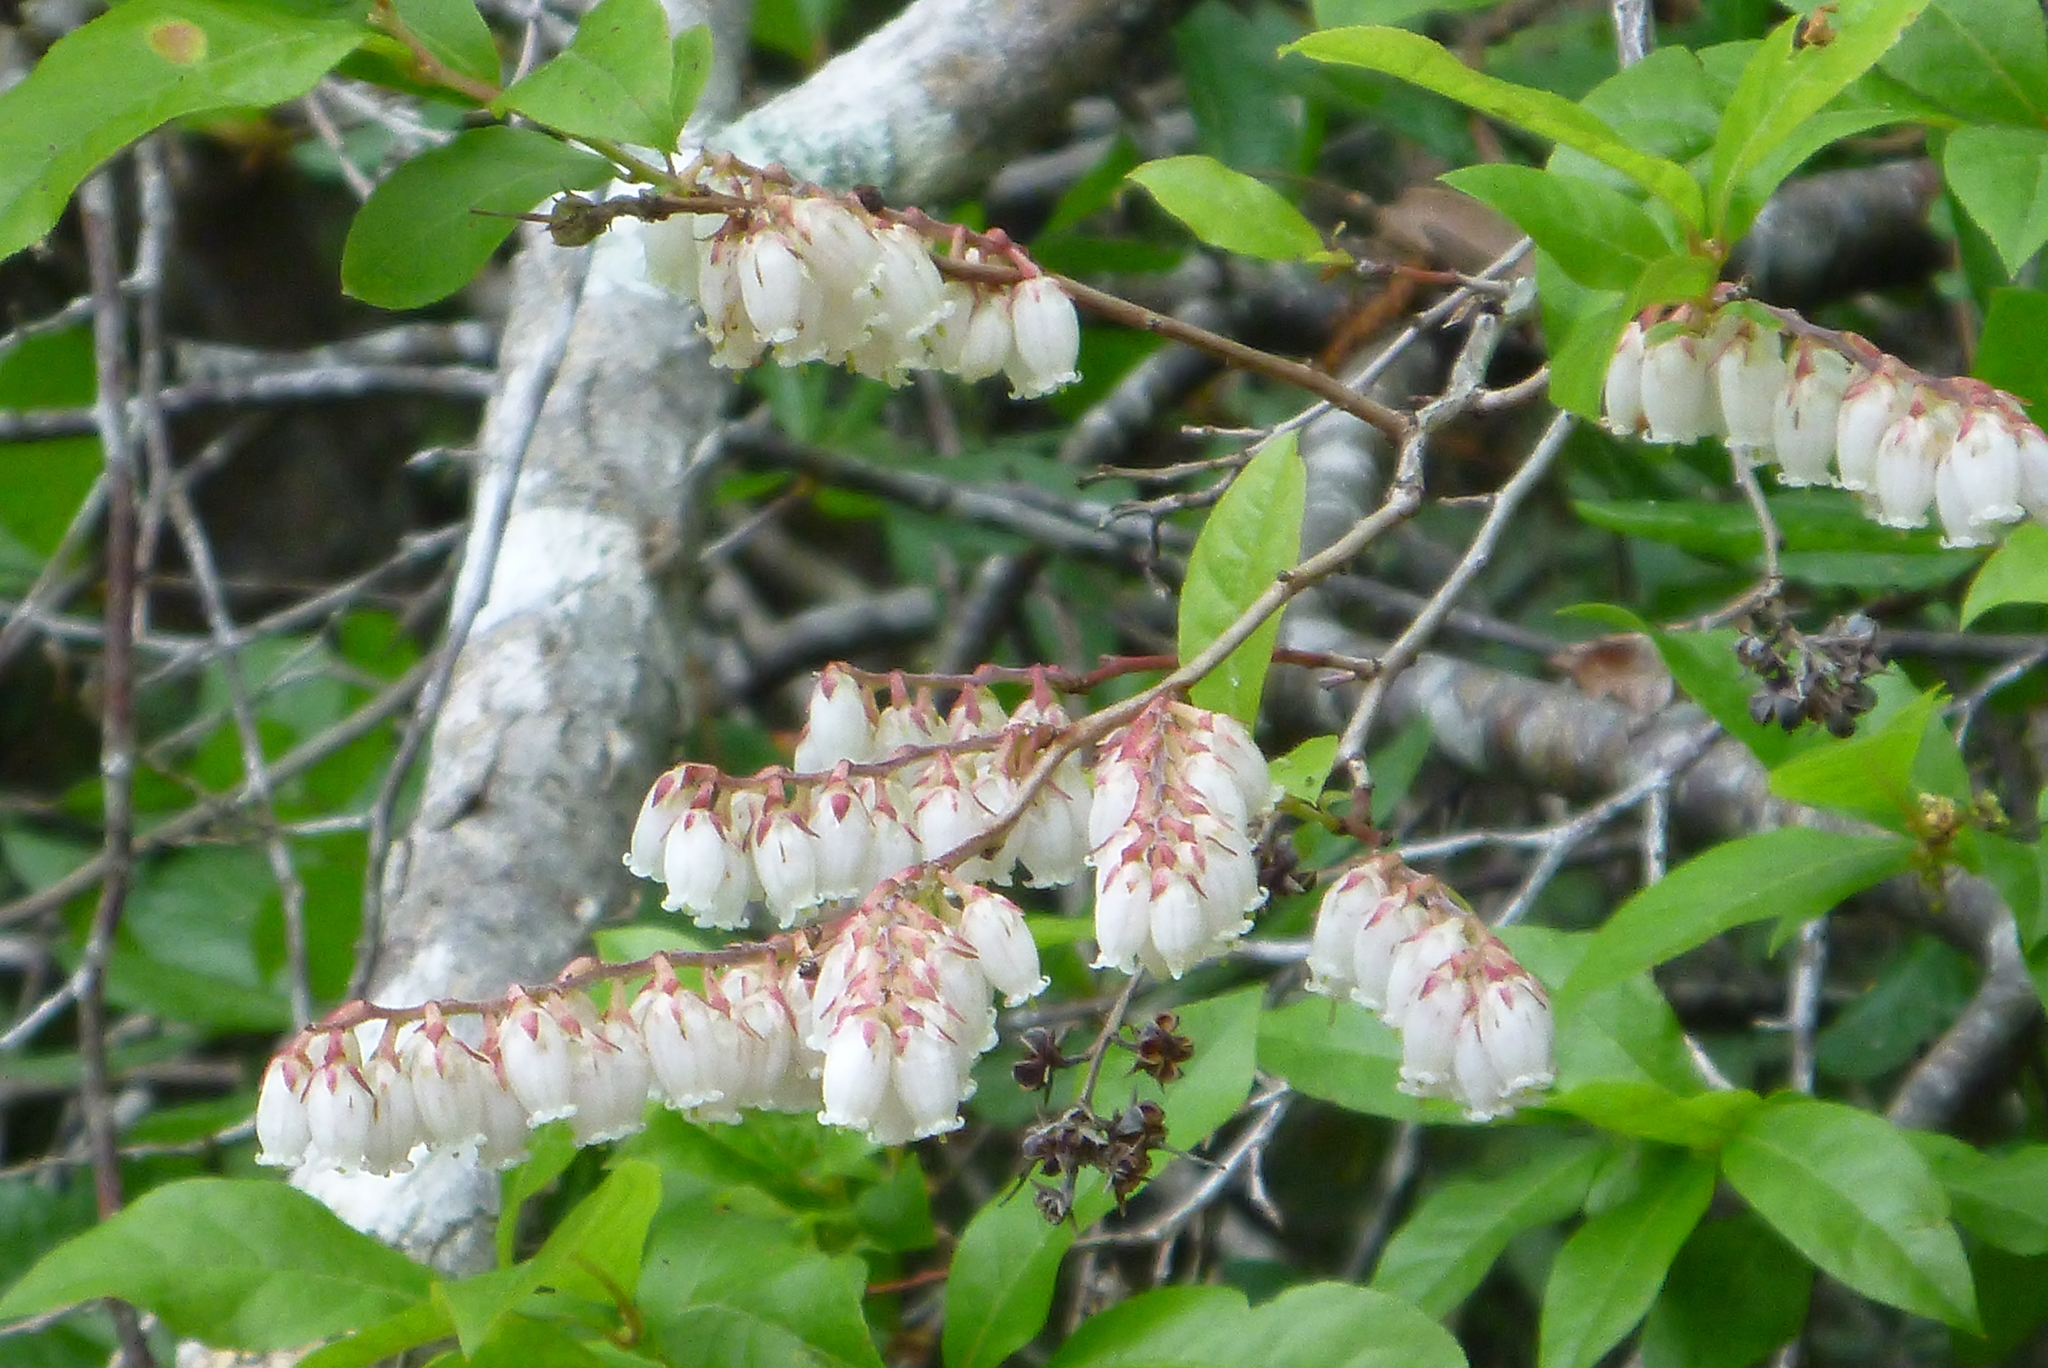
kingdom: Plantae
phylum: Tracheophyta
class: Magnoliopsida
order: Ericales
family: Ericaceae
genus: Eubotrys
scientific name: Eubotrys racemosa
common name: Fetterbush
